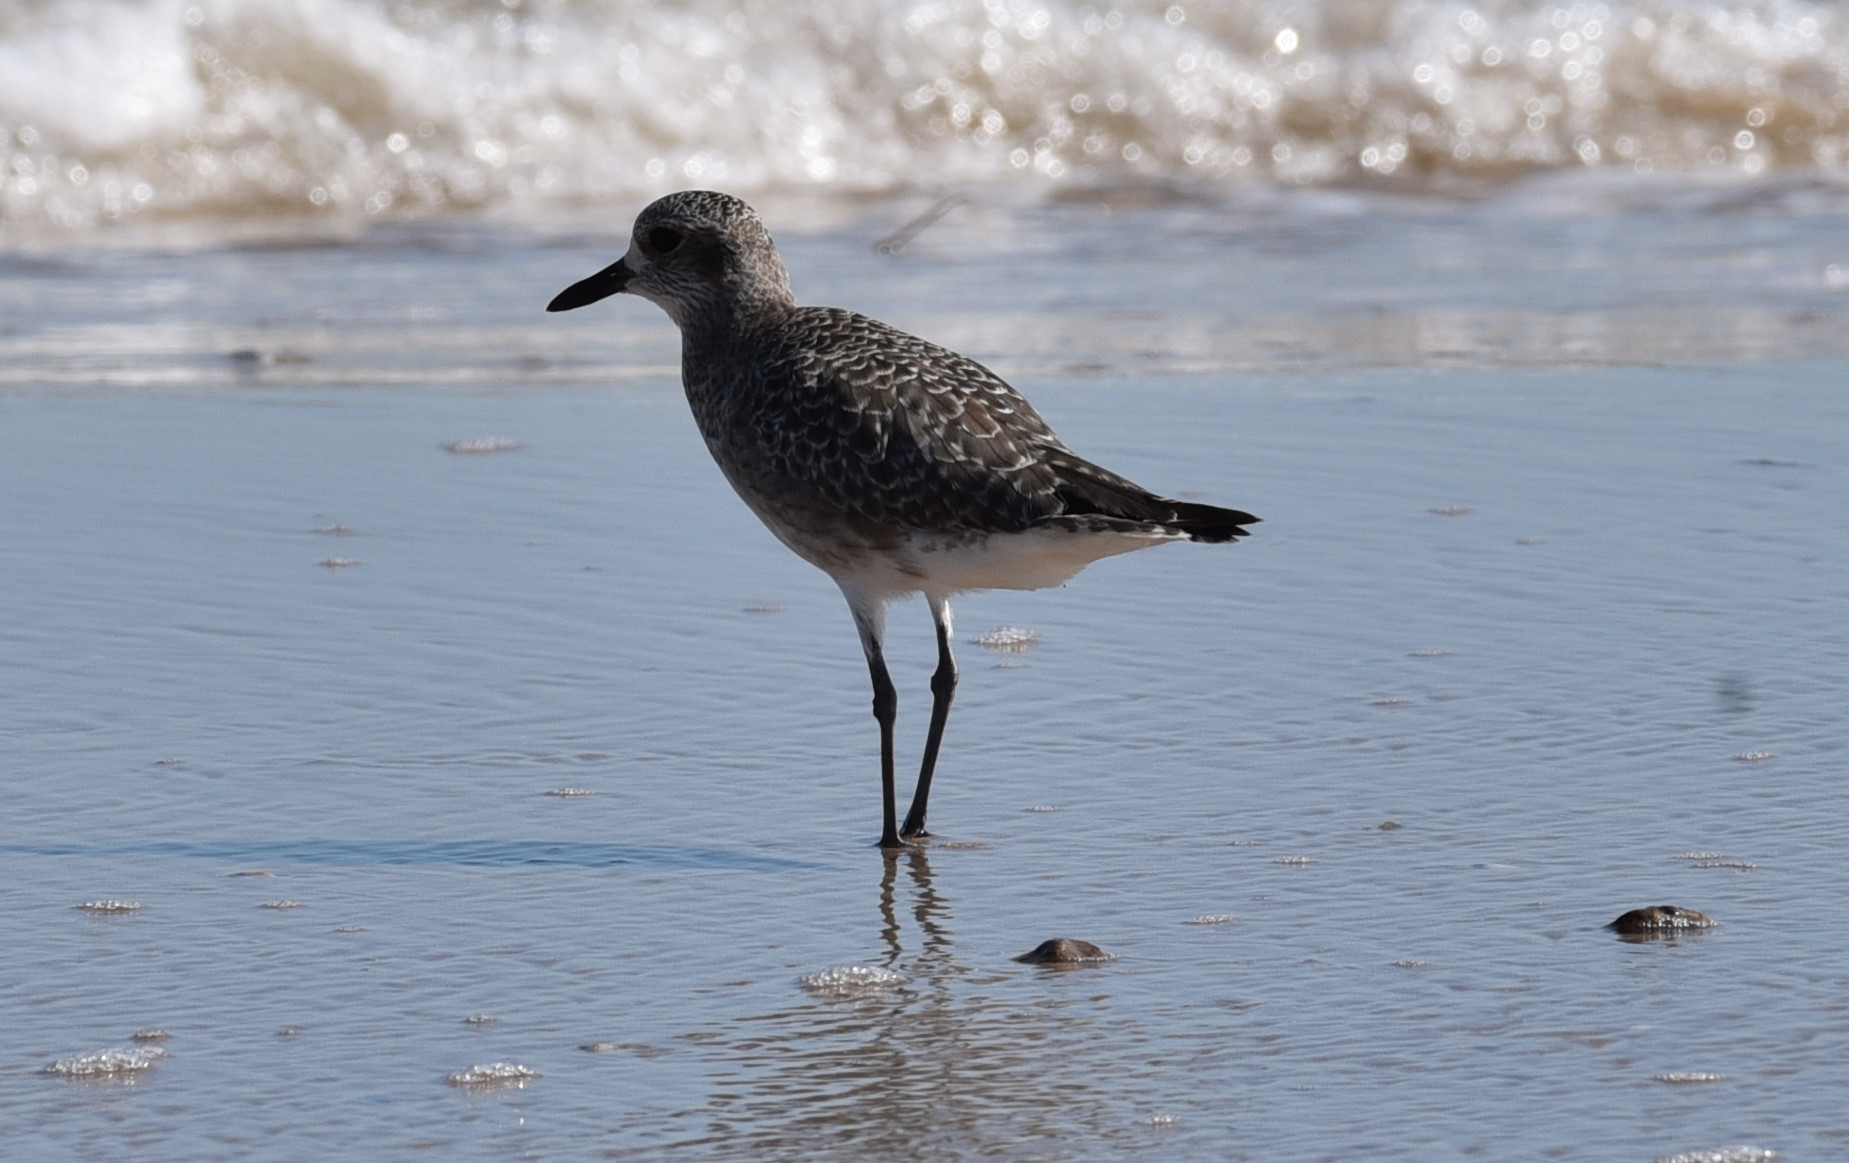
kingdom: Animalia
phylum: Chordata
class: Aves
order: Charadriiformes
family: Charadriidae
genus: Pluvialis
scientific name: Pluvialis squatarola
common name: Grey plover
